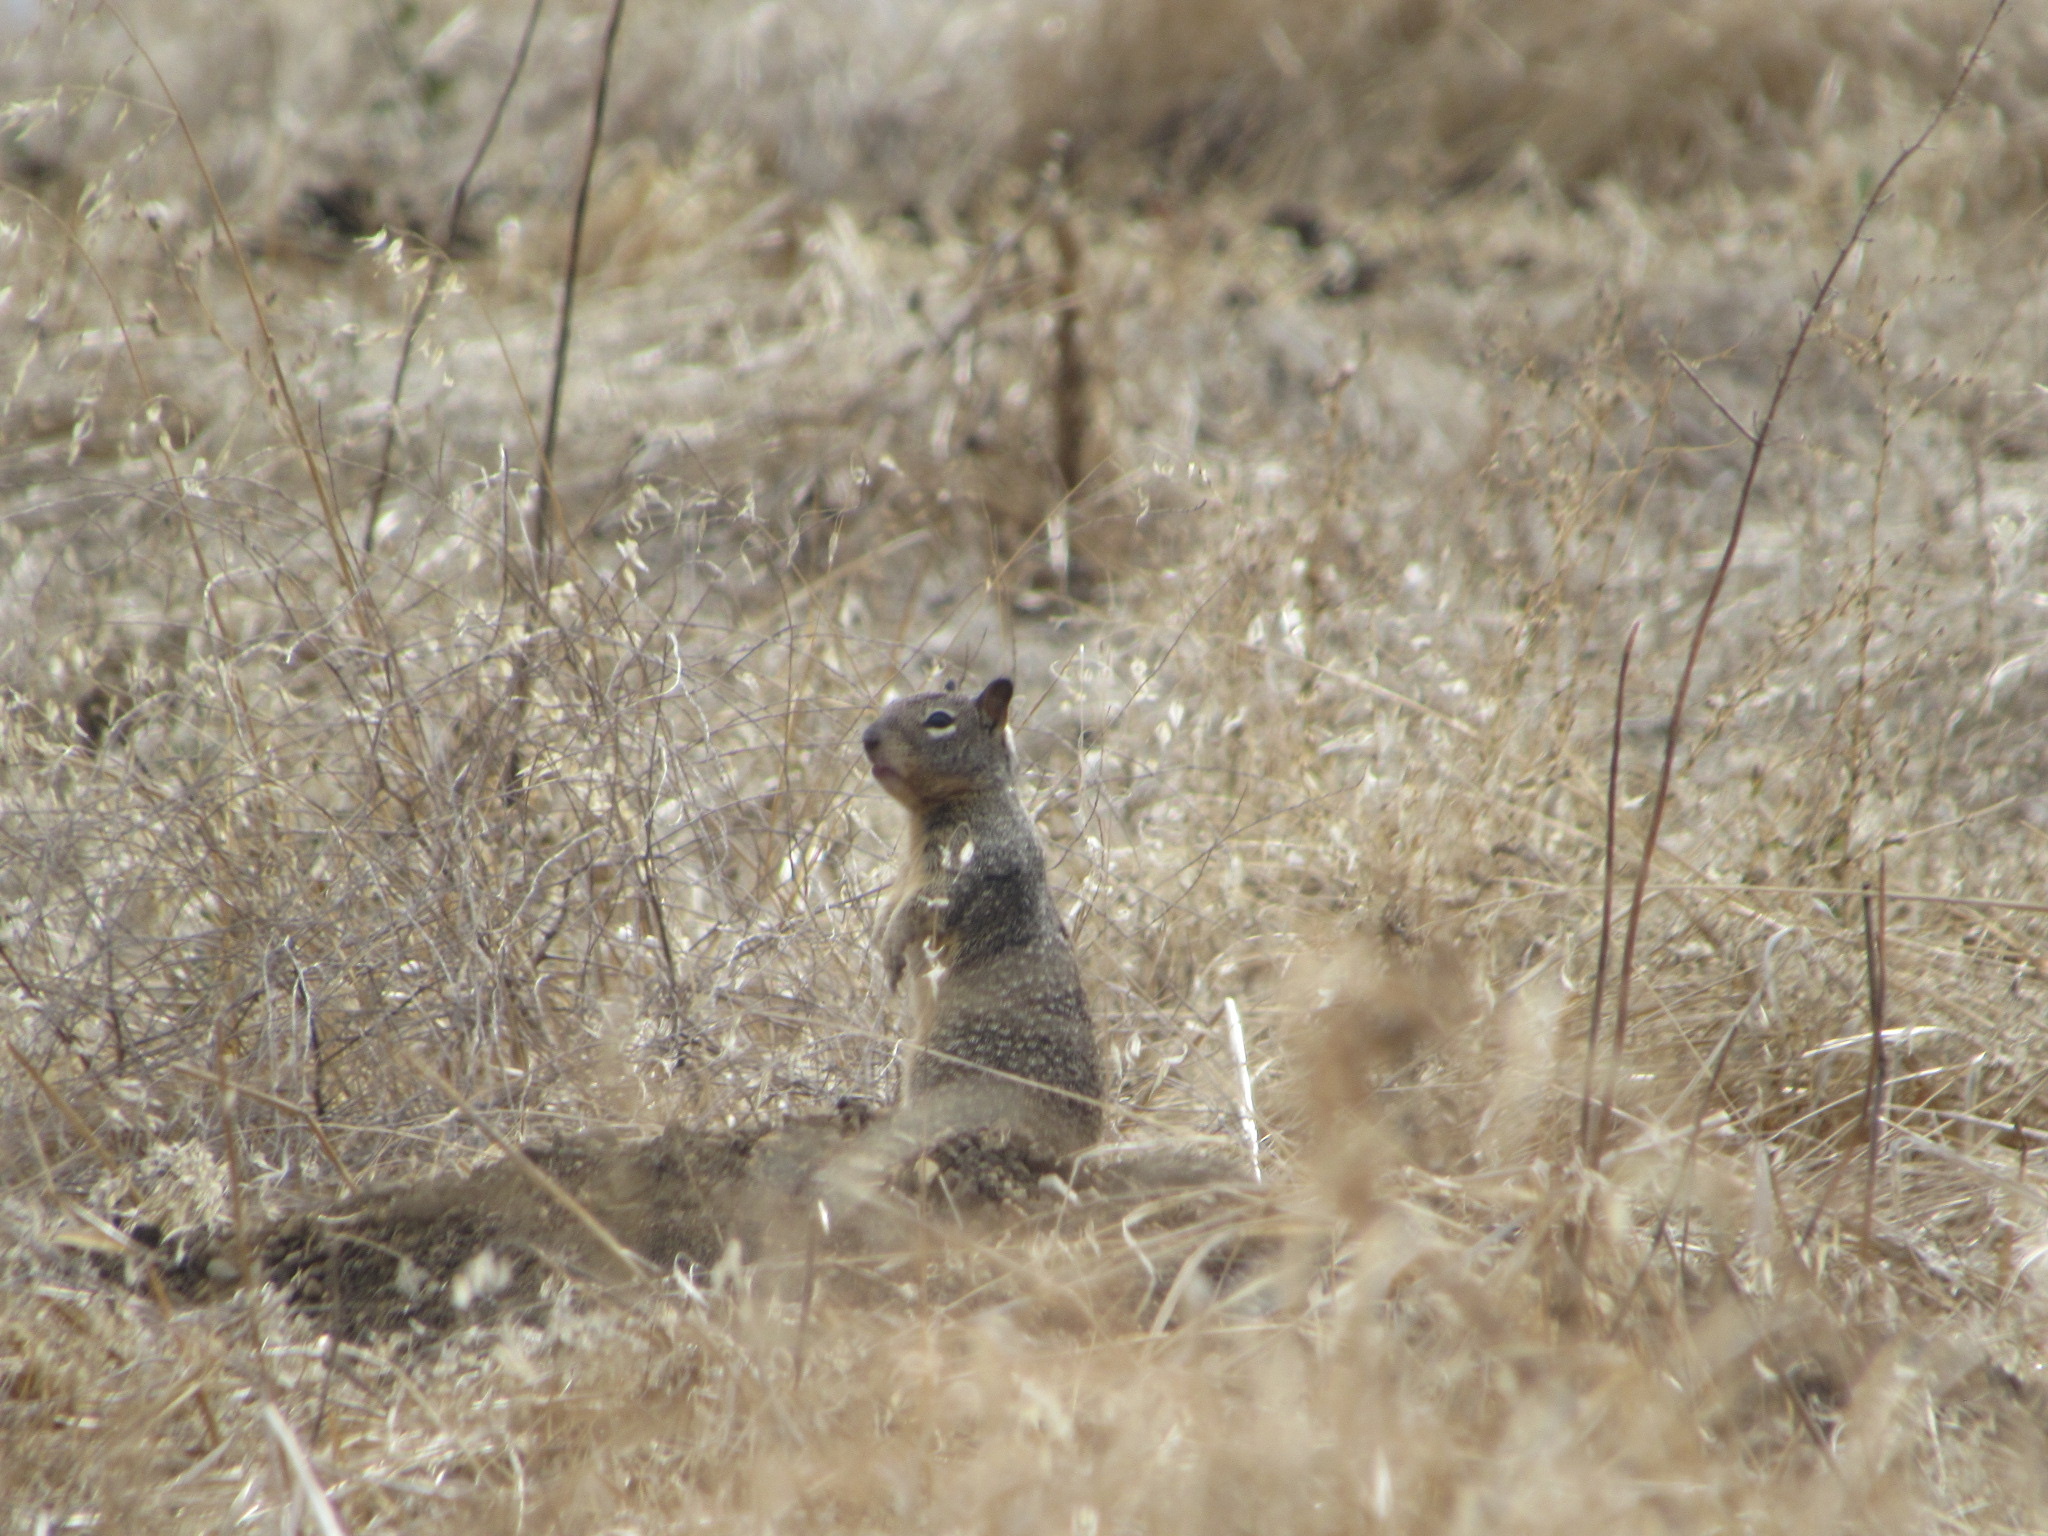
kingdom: Animalia
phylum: Chordata
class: Mammalia
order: Rodentia
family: Sciuridae
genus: Otospermophilus
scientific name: Otospermophilus beecheyi
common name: California ground squirrel
